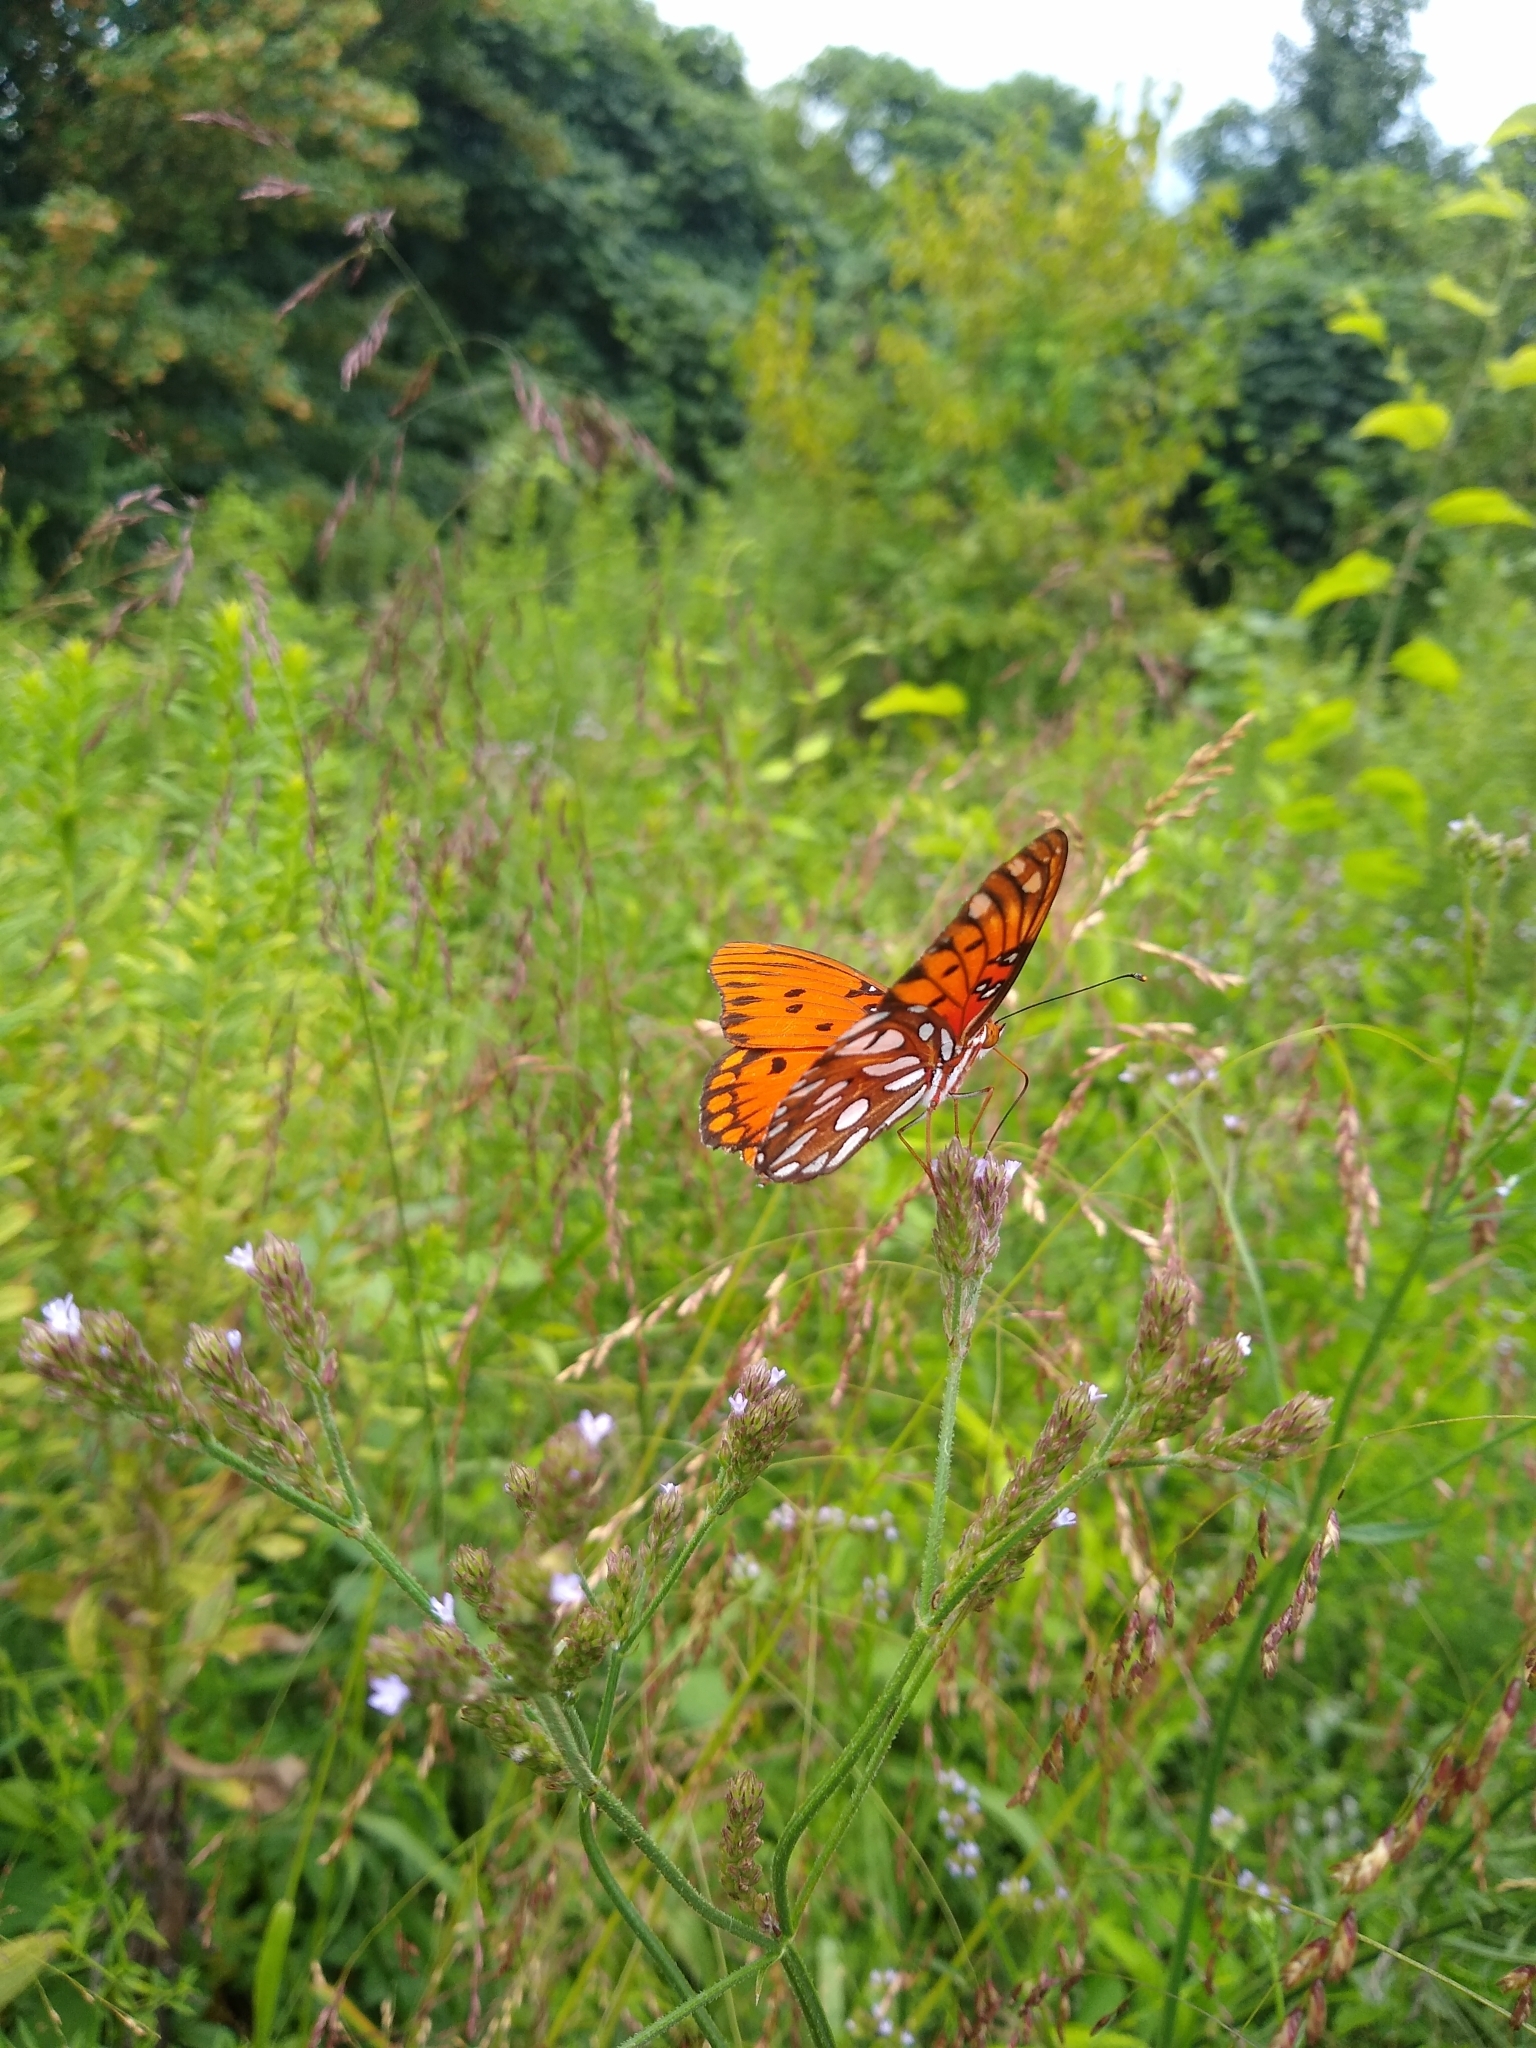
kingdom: Animalia
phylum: Arthropoda
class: Insecta
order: Lepidoptera
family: Nymphalidae
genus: Dione
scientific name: Dione vanillae
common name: Gulf fritillary
